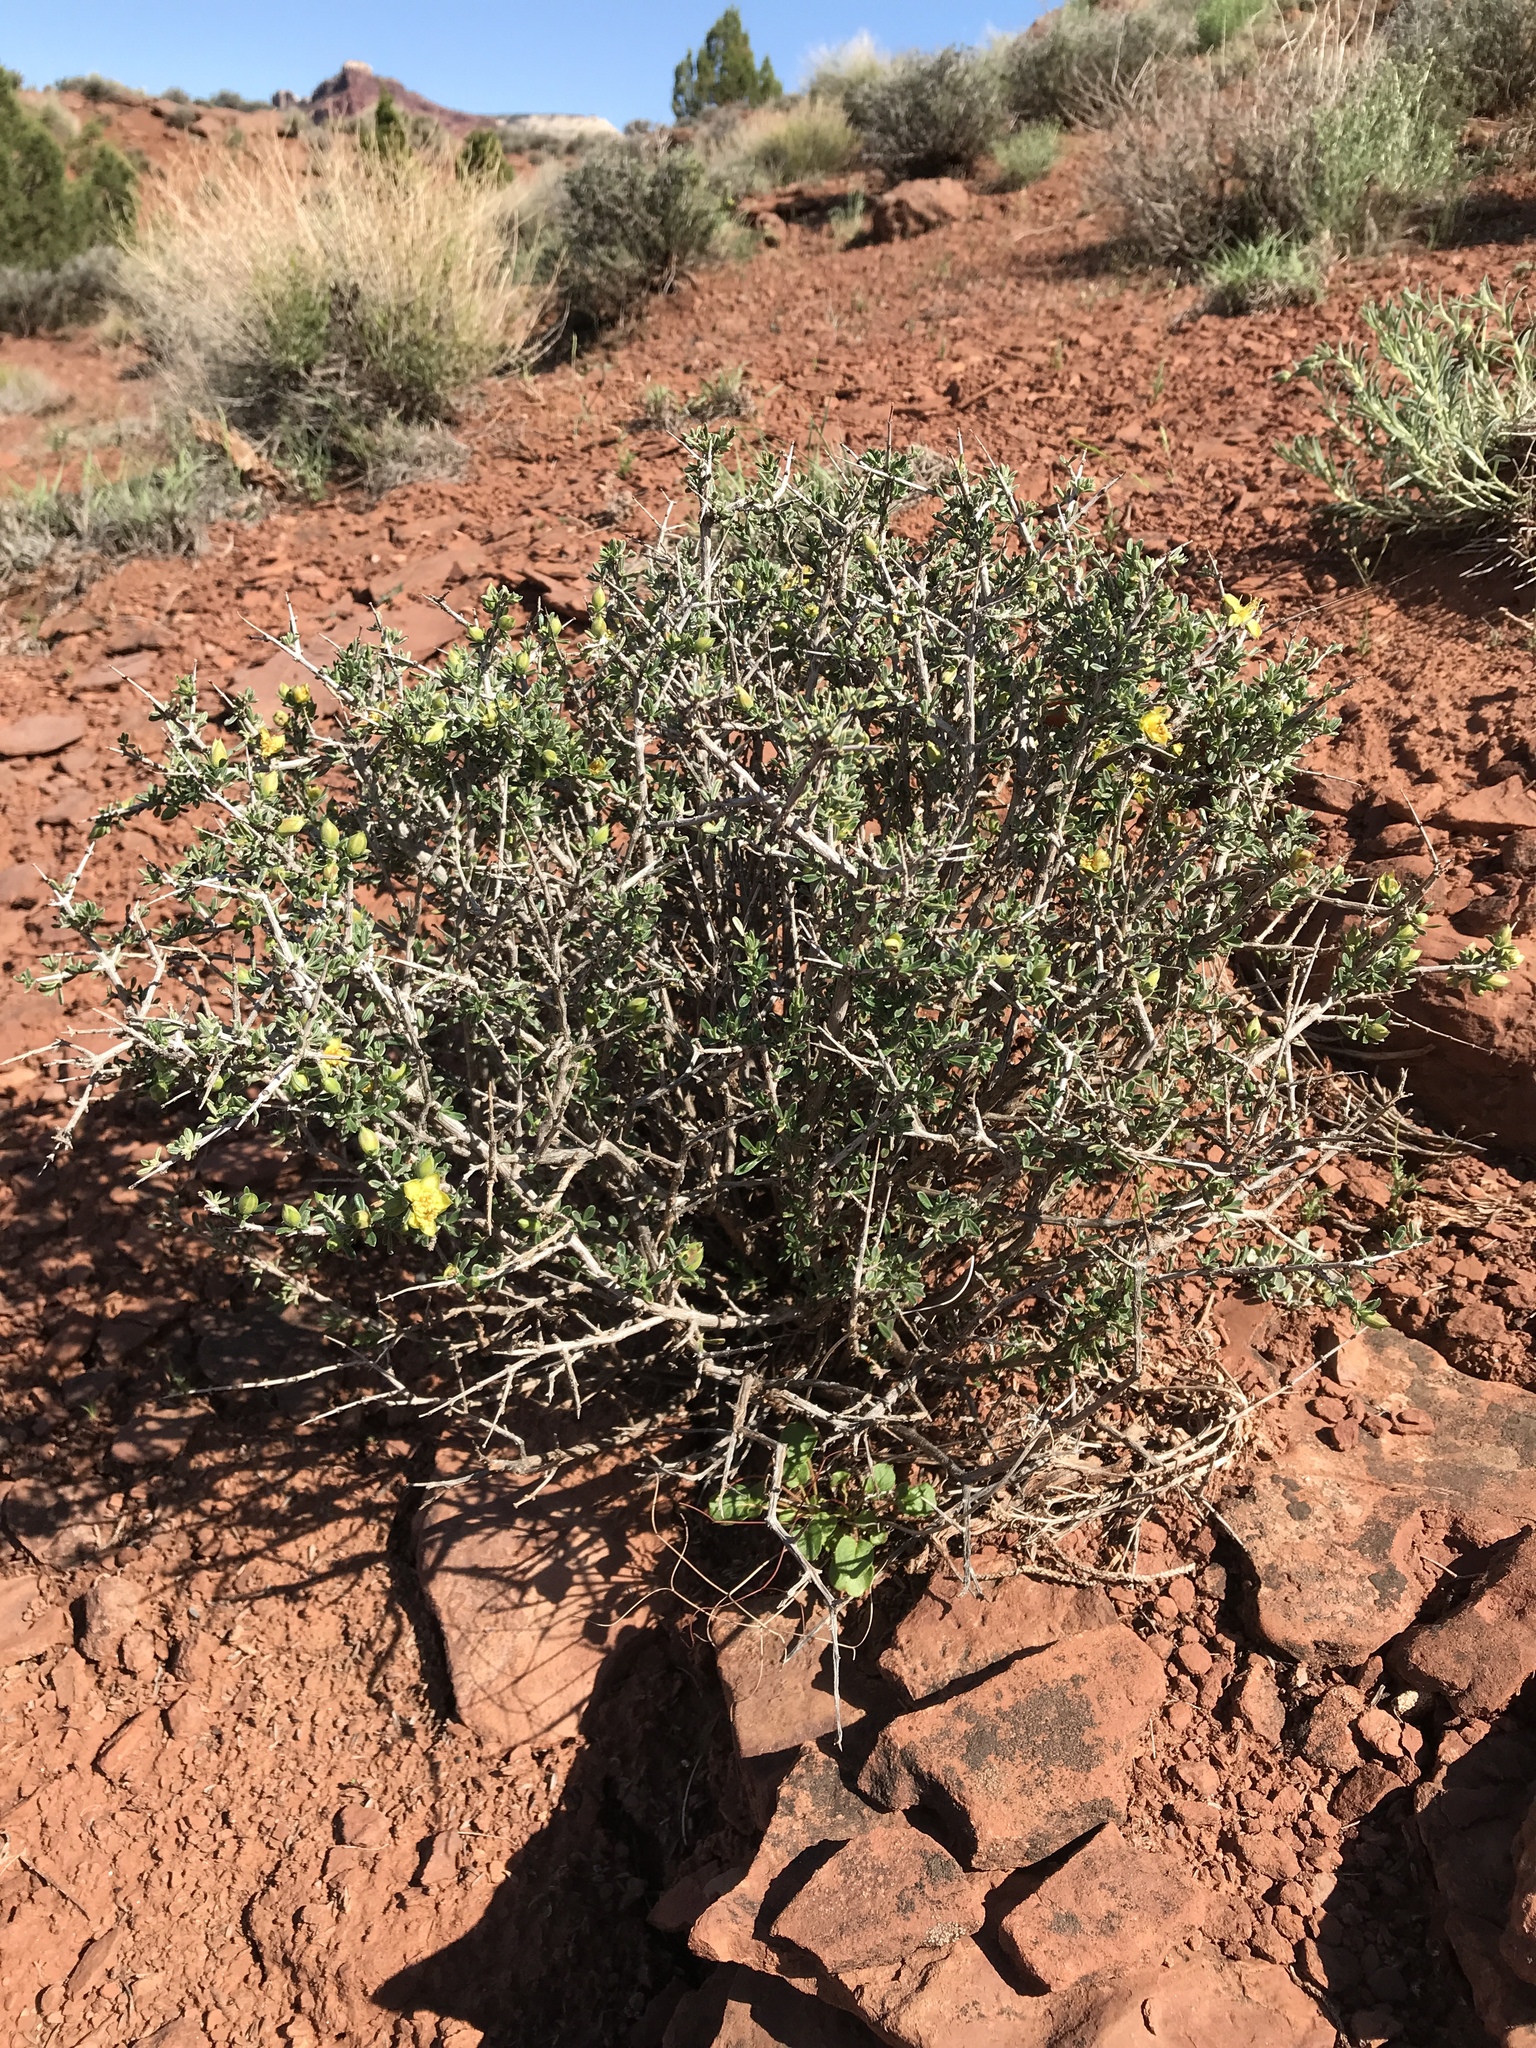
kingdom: Plantae
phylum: Tracheophyta
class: Magnoliopsida
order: Rosales
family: Rosaceae
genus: Coleogyne
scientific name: Coleogyne ramosissima
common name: Blackbrush
